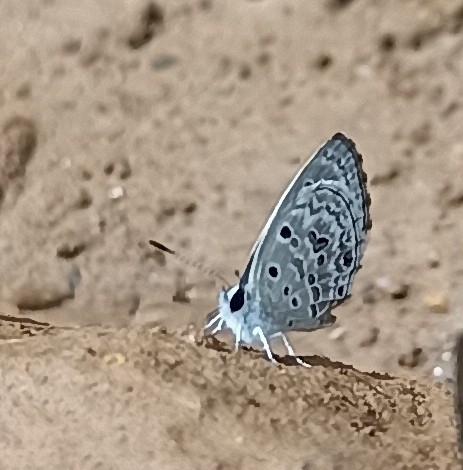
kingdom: Animalia
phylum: Arthropoda
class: Insecta
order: Lepidoptera
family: Lycaenidae
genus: Chilades
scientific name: Chilades laius
